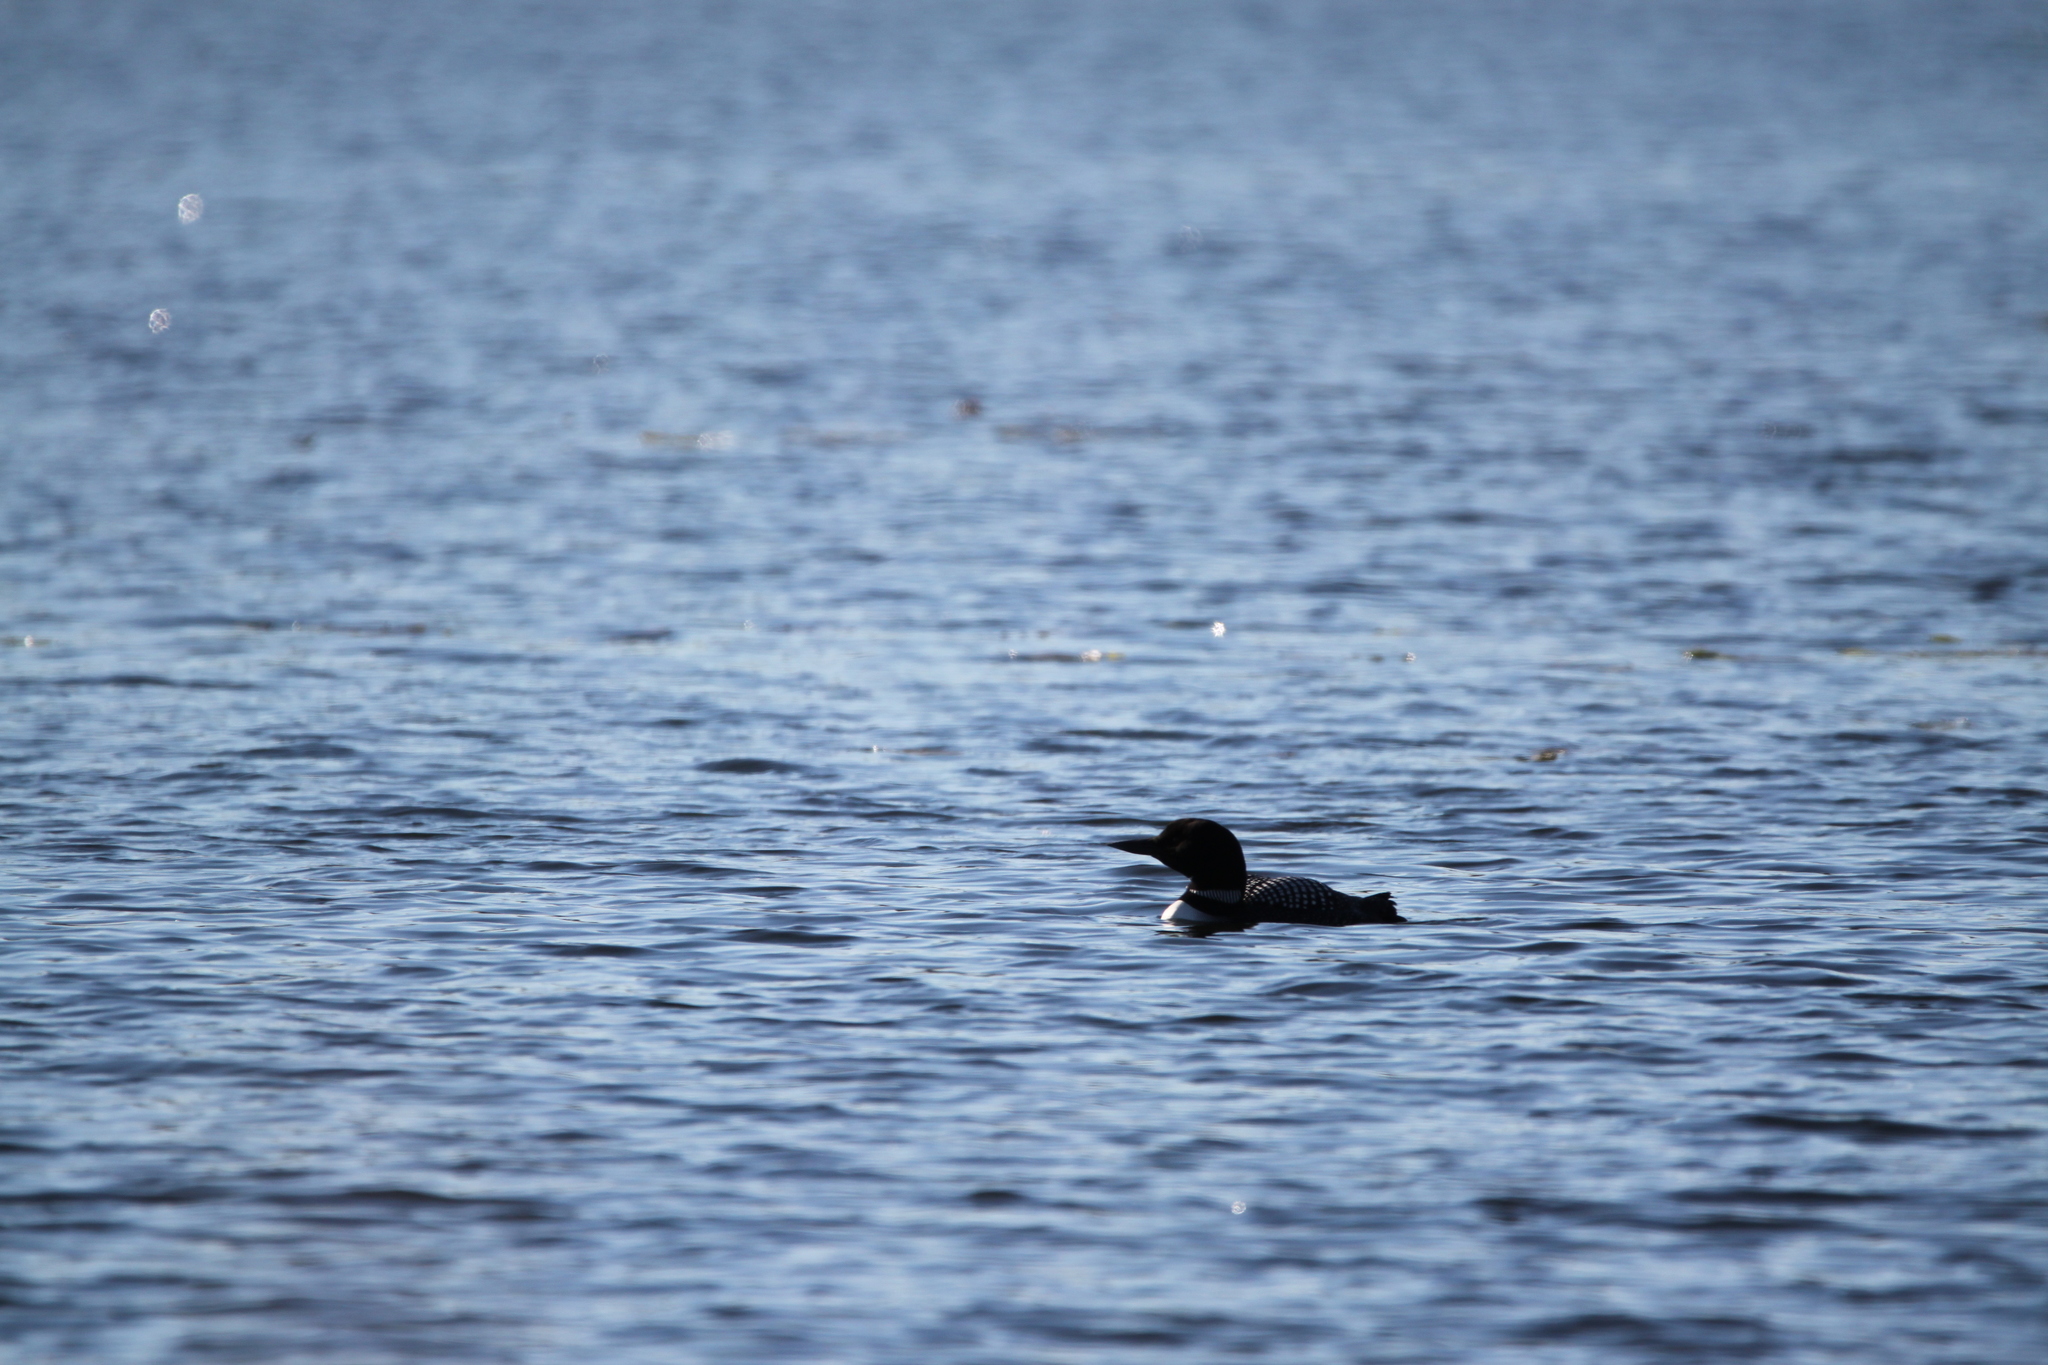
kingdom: Animalia
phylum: Chordata
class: Aves
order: Gaviiformes
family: Gaviidae
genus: Gavia
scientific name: Gavia immer
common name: Common loon
